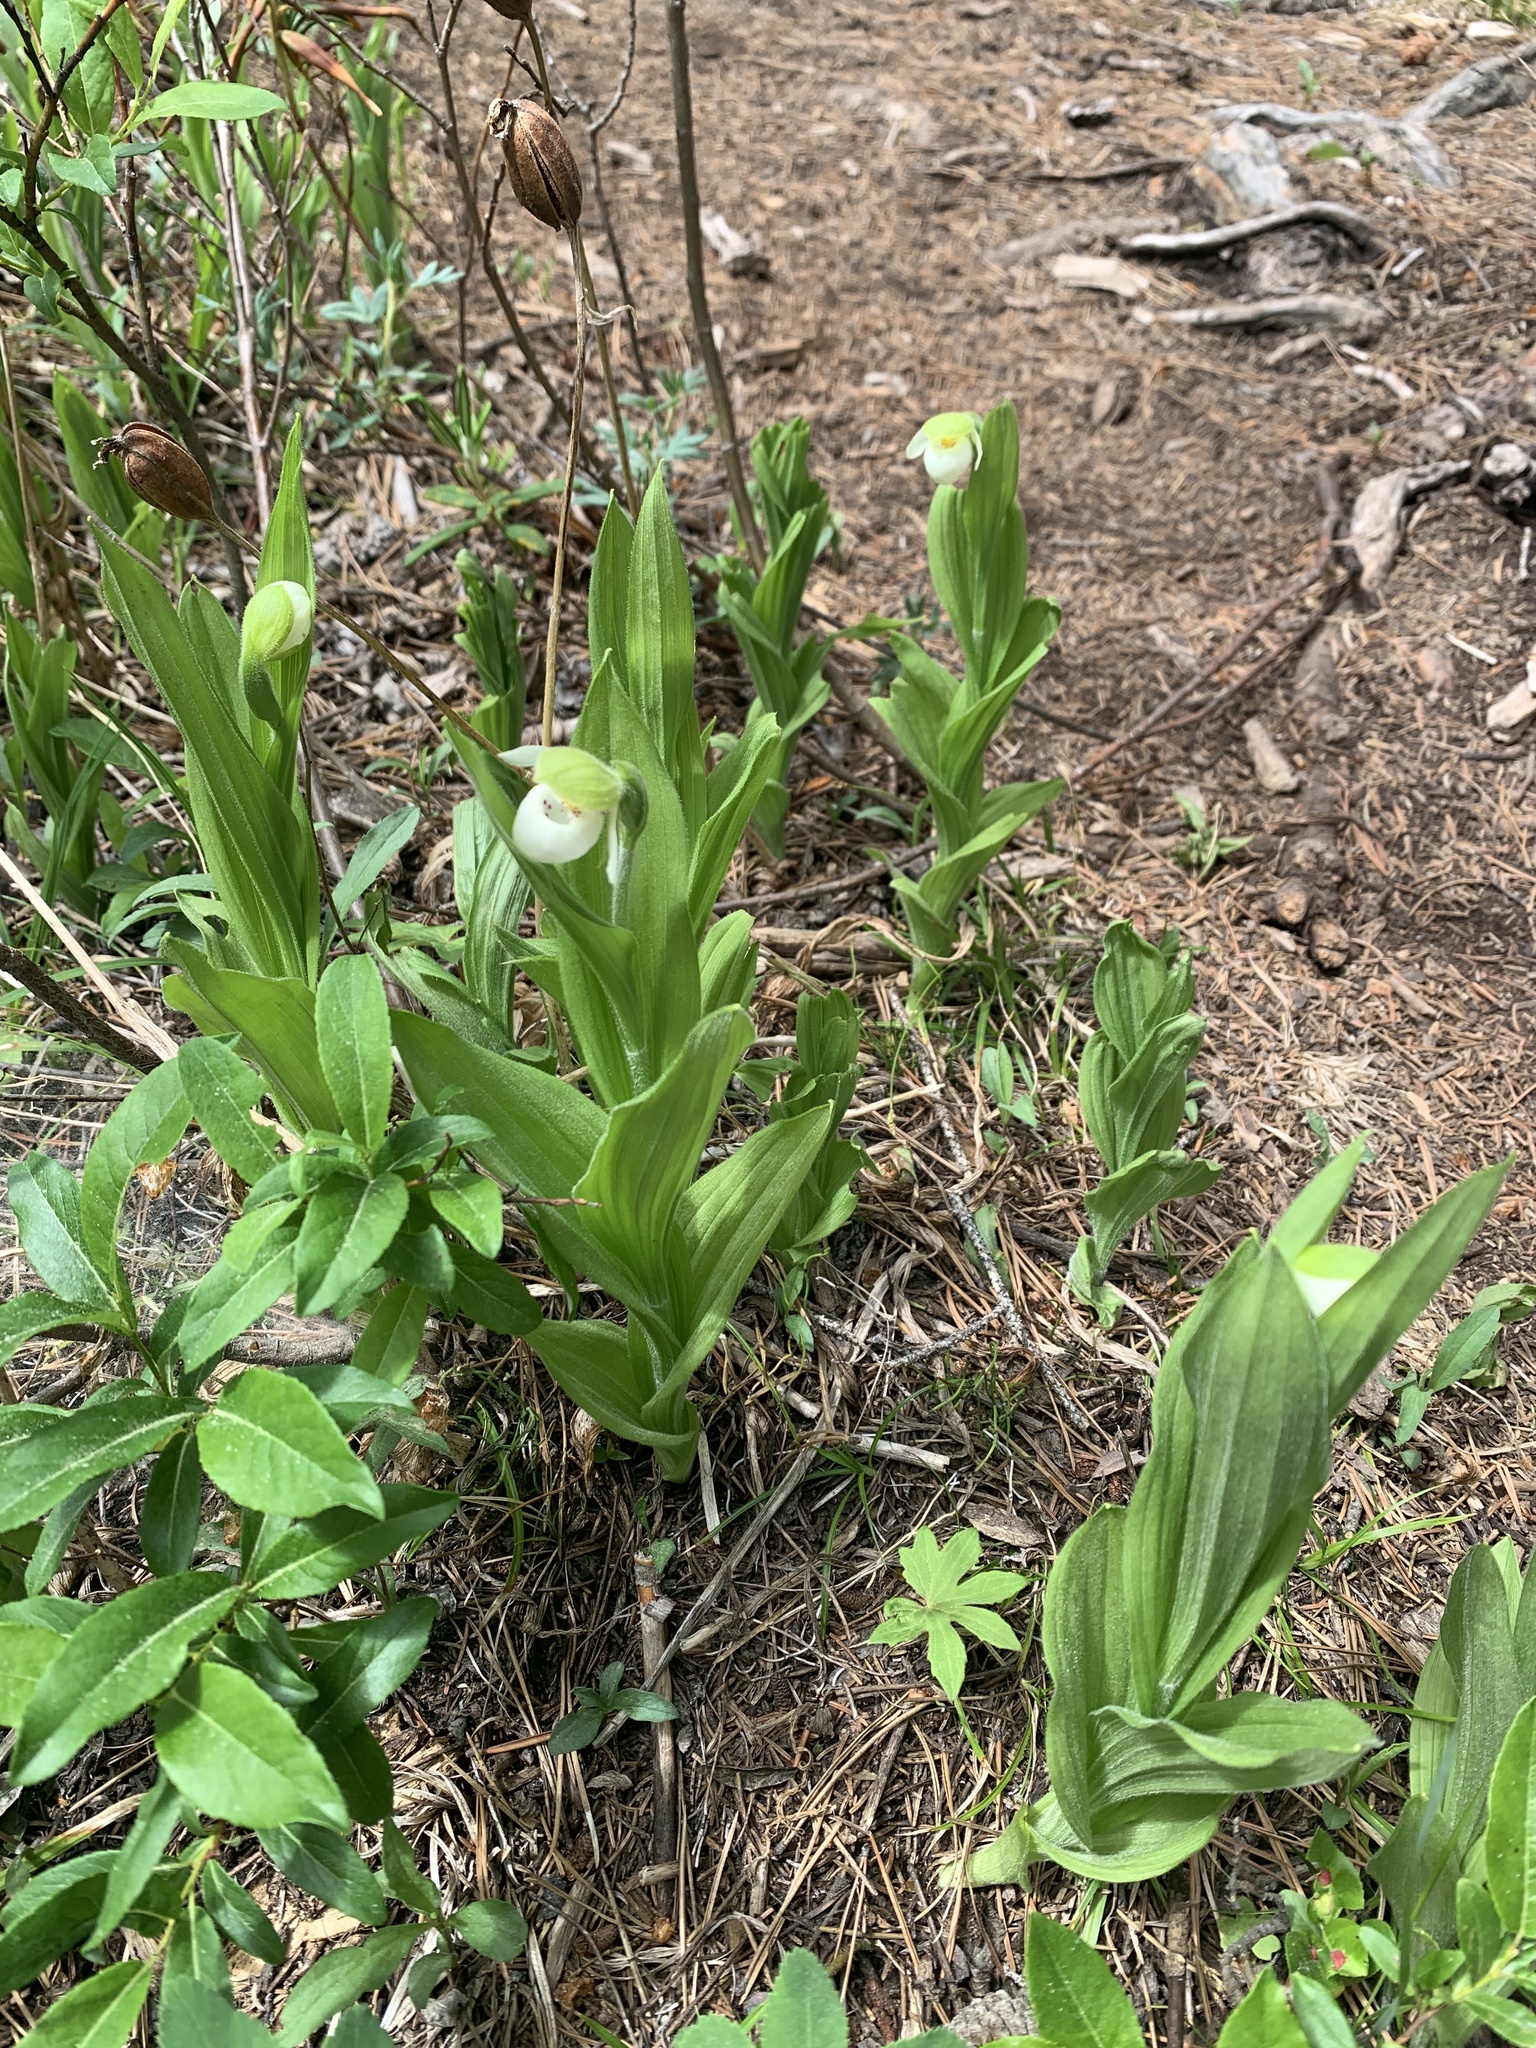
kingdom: Plantae
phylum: Tracheophyta
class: Liliopsida
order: Asparagales
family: Orchidaceae
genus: Cypripedium
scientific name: Cypripedium passerinum
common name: Sparrow's-egg lady's-slipper
